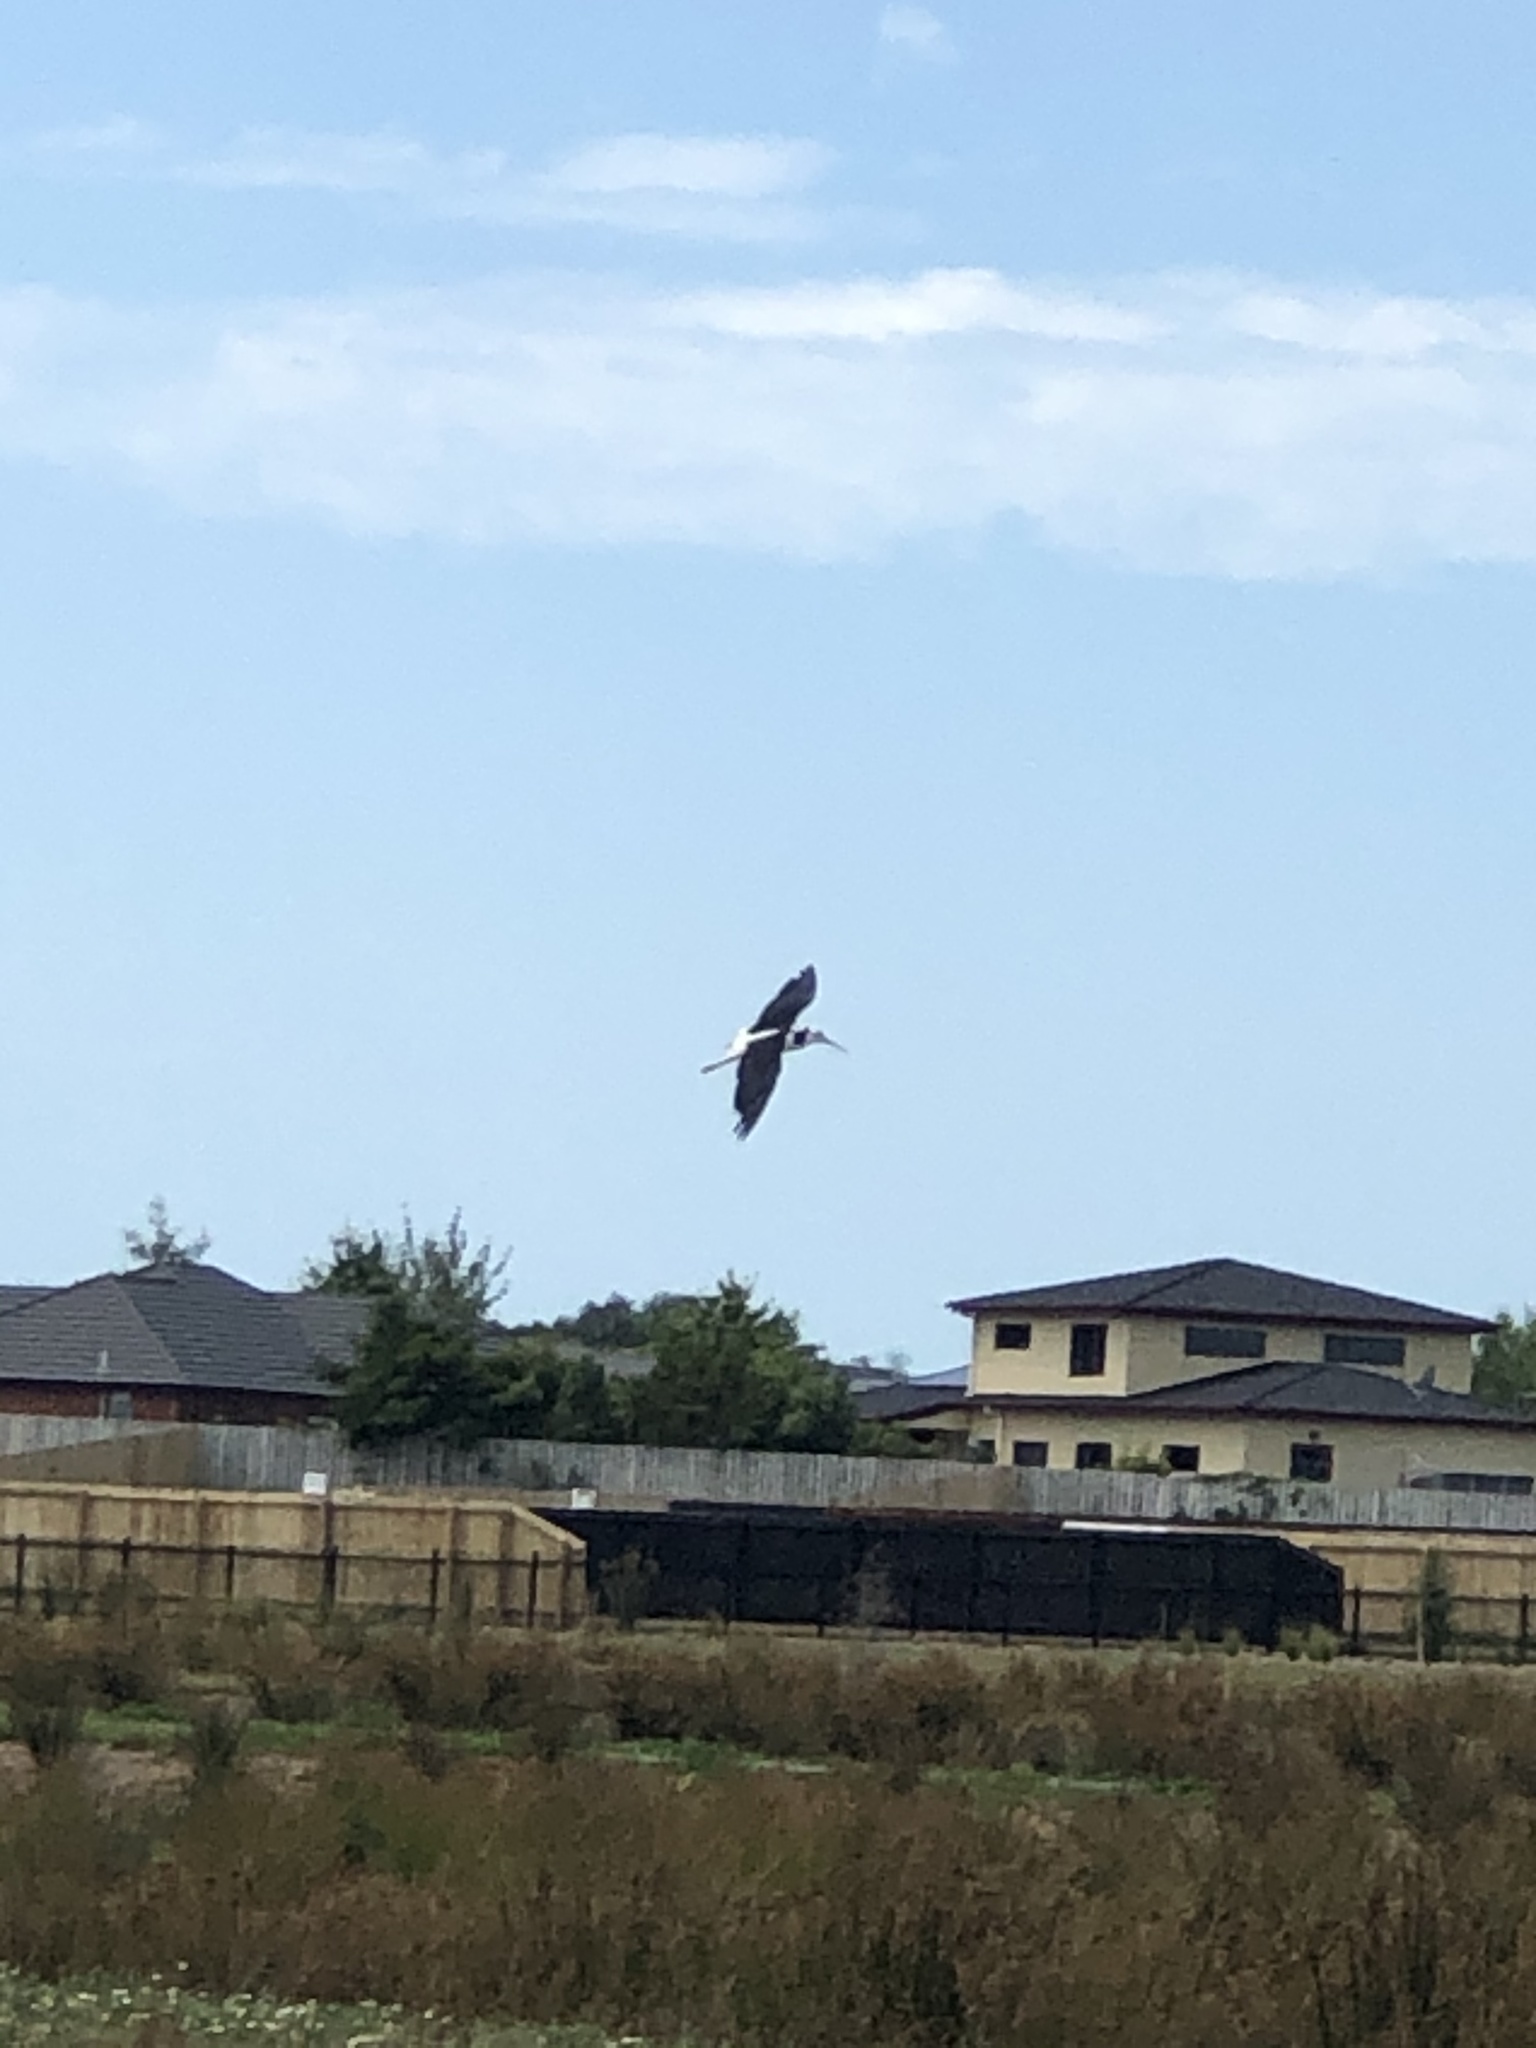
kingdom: Animalia
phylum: Chordata
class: Aves
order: Charadriiformes
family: Recurvirostridae
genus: Himantopus
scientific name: Himantopus leucocephalus
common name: White-headed stilt
